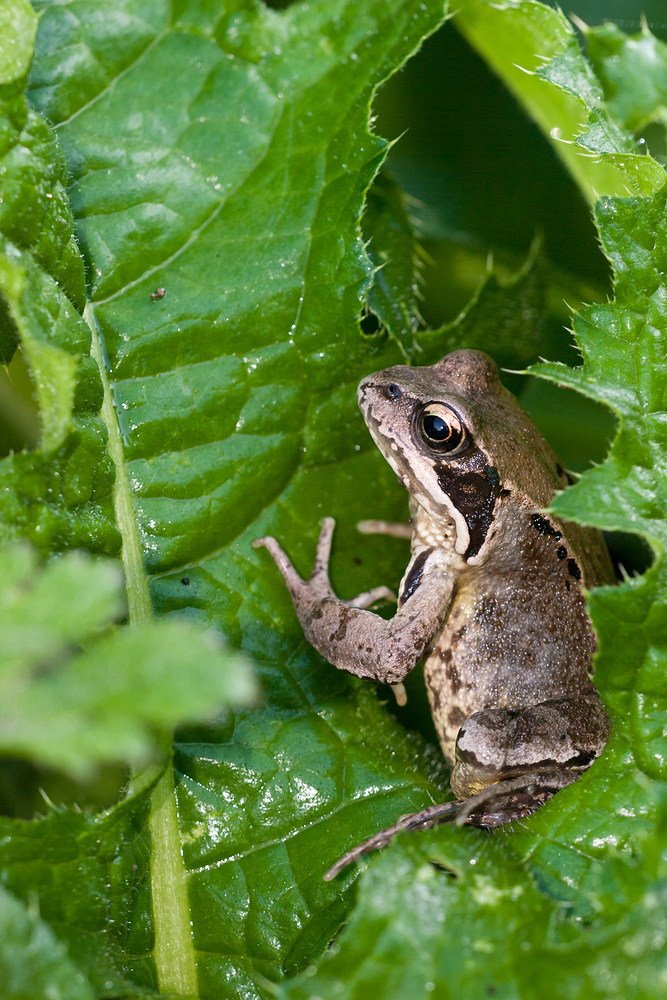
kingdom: Animalia
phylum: Chordata
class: Amphibia
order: Anura
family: Ranidae
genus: Rana
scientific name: Rana temporaria
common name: Common frog
